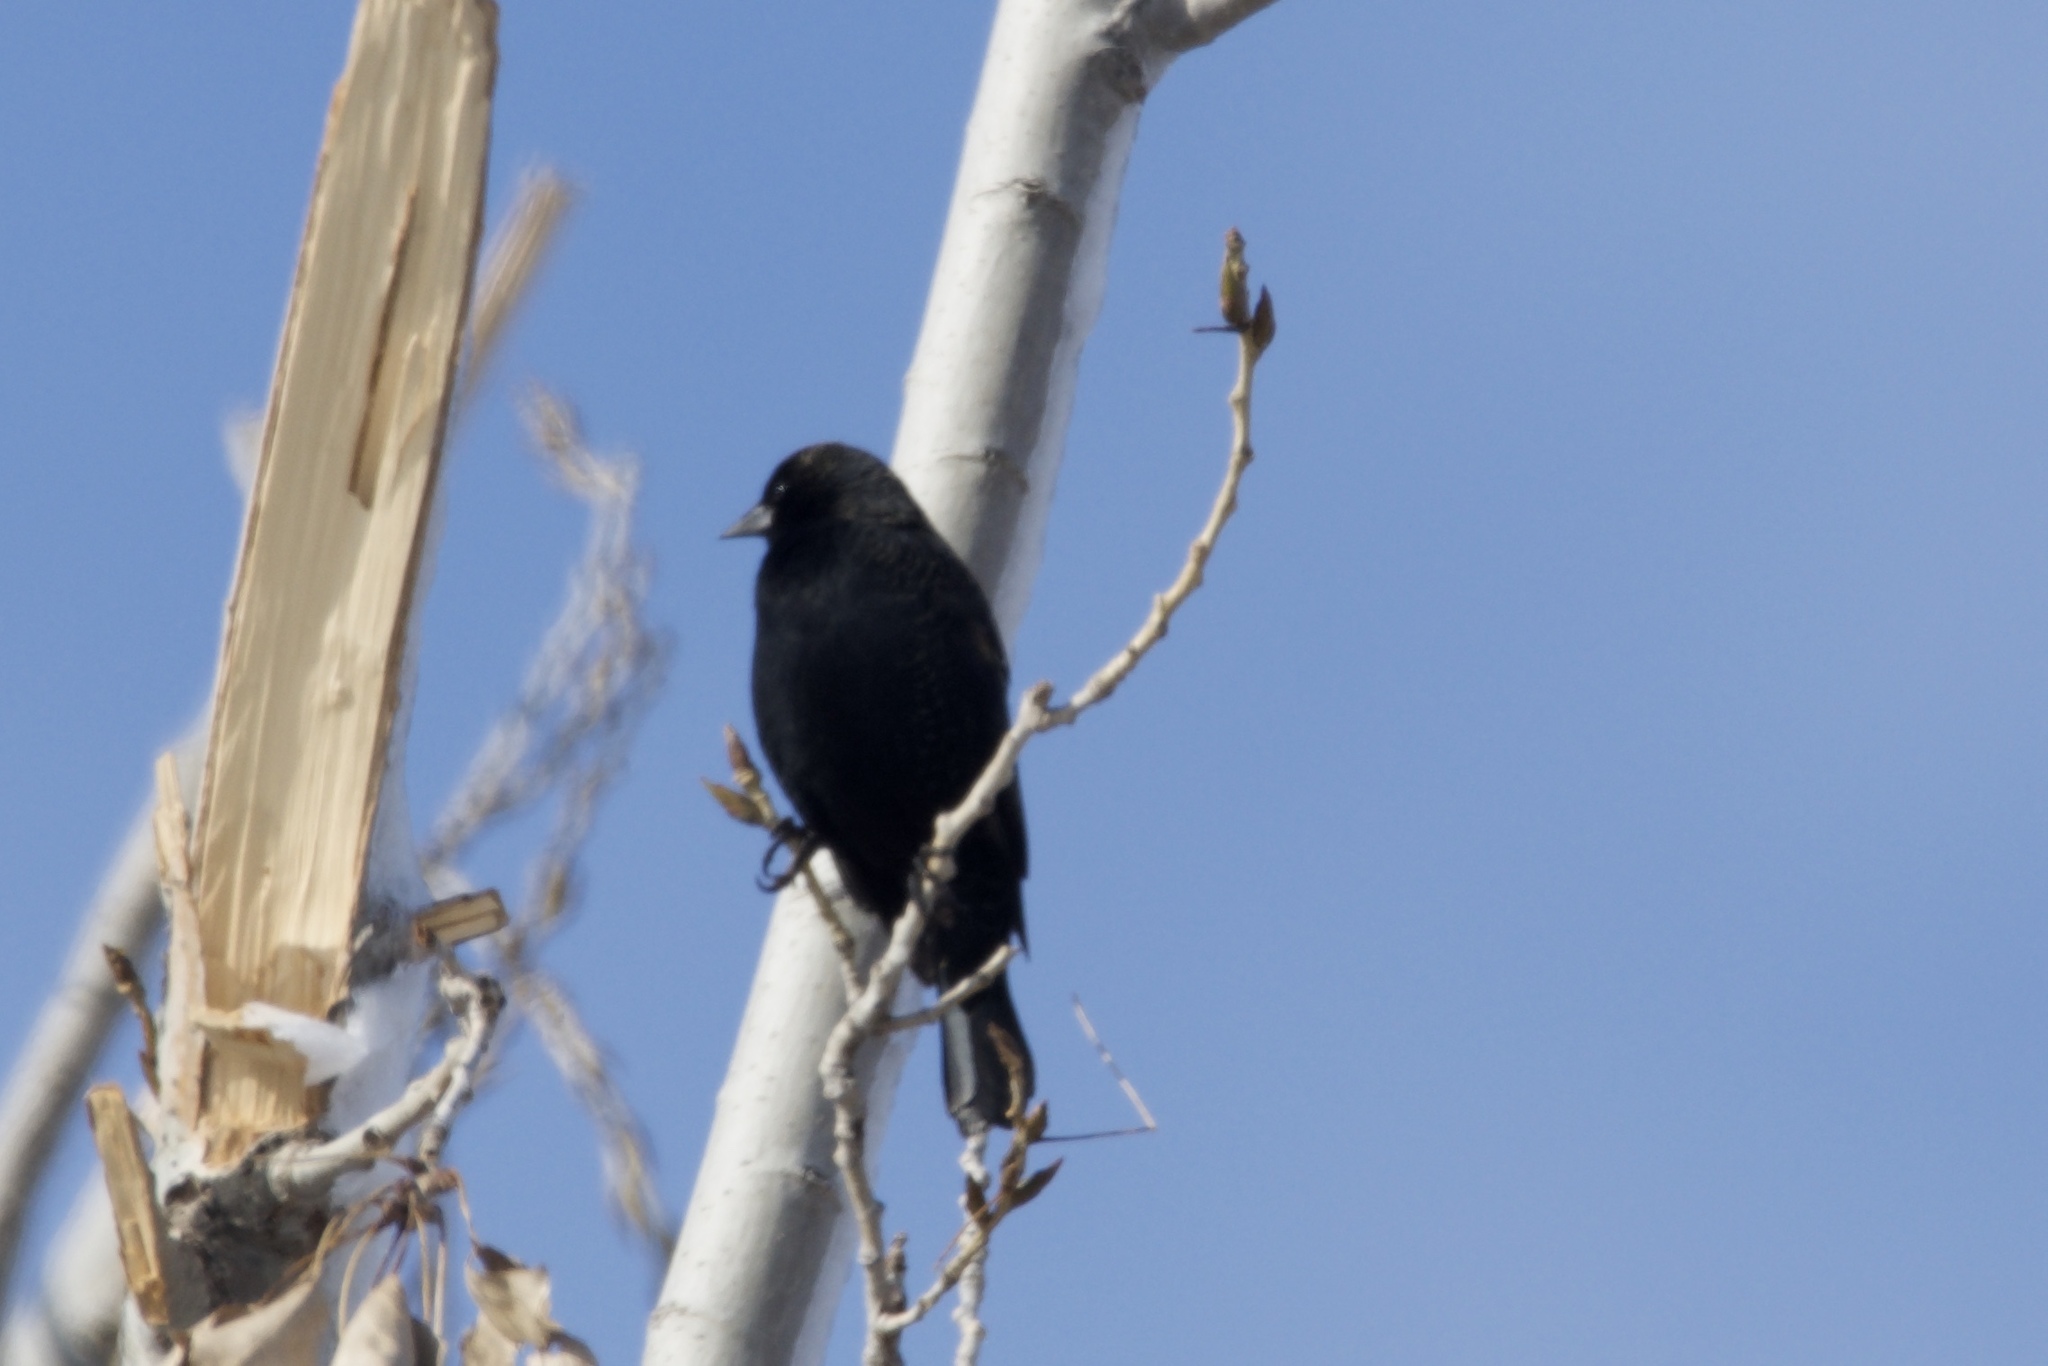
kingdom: Animalia
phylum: Chordata
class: Aves
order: Passeriformes
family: Icteridae
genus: Agelaius
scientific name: Agelaius phoeniceus
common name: Red-winged blackbird
